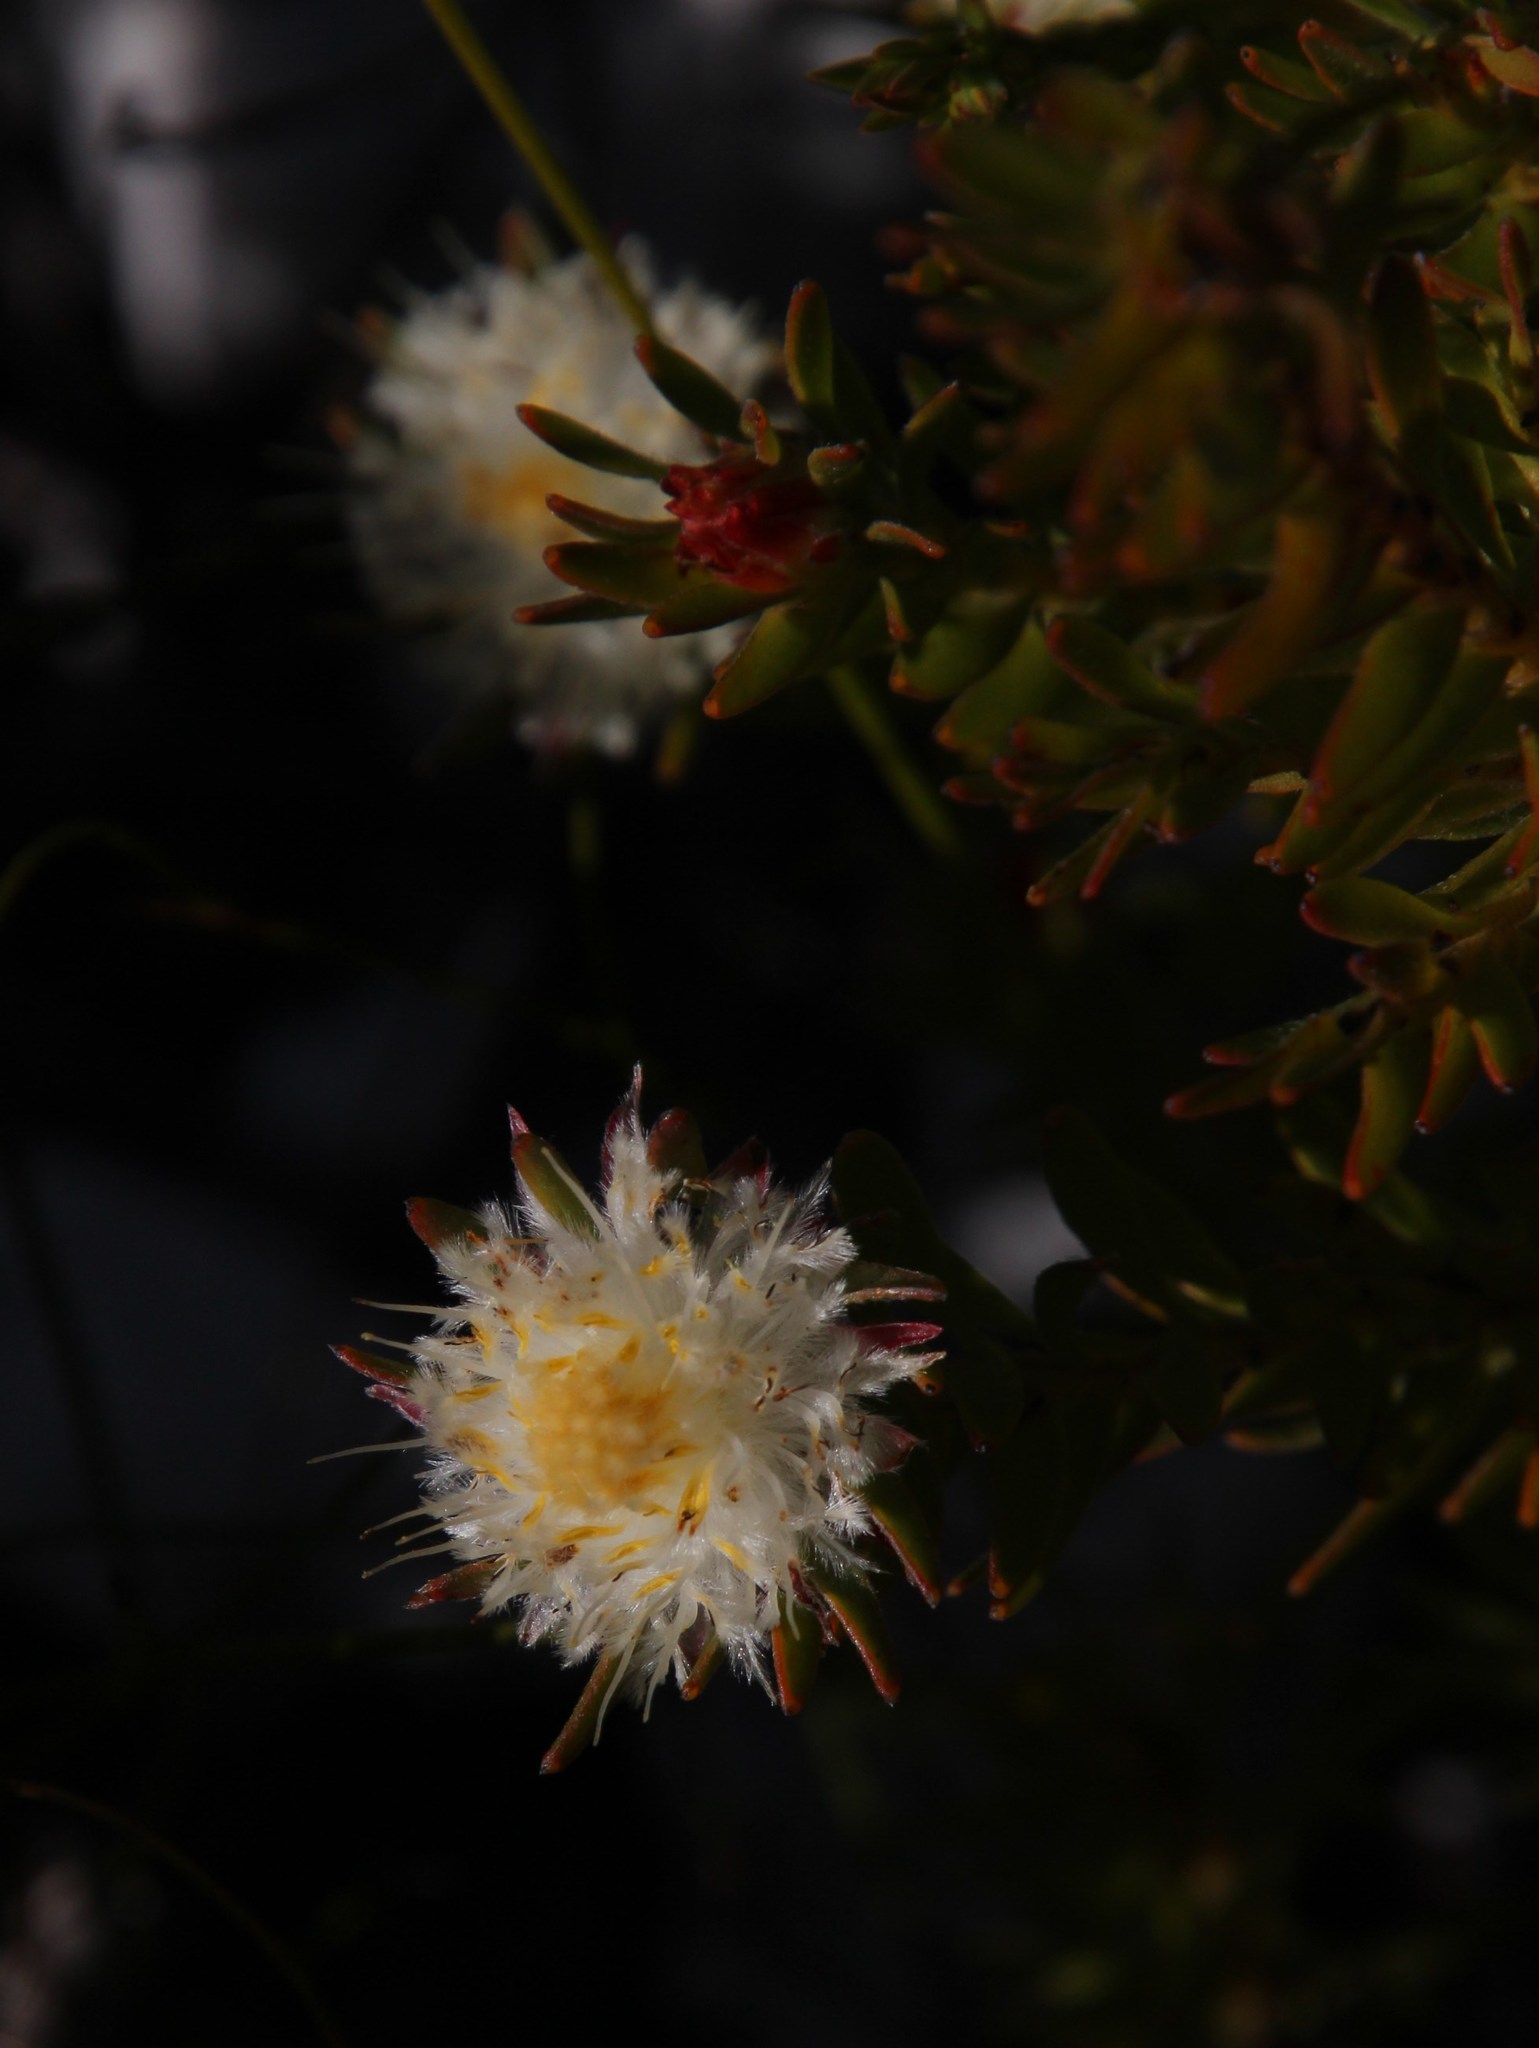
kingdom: Plantae
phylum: Tracheophyta
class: Magnoliopsida
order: Proteales
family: Proteaceae
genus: Diastella
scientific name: Diastella fraterna
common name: Palmiet silkypuff
